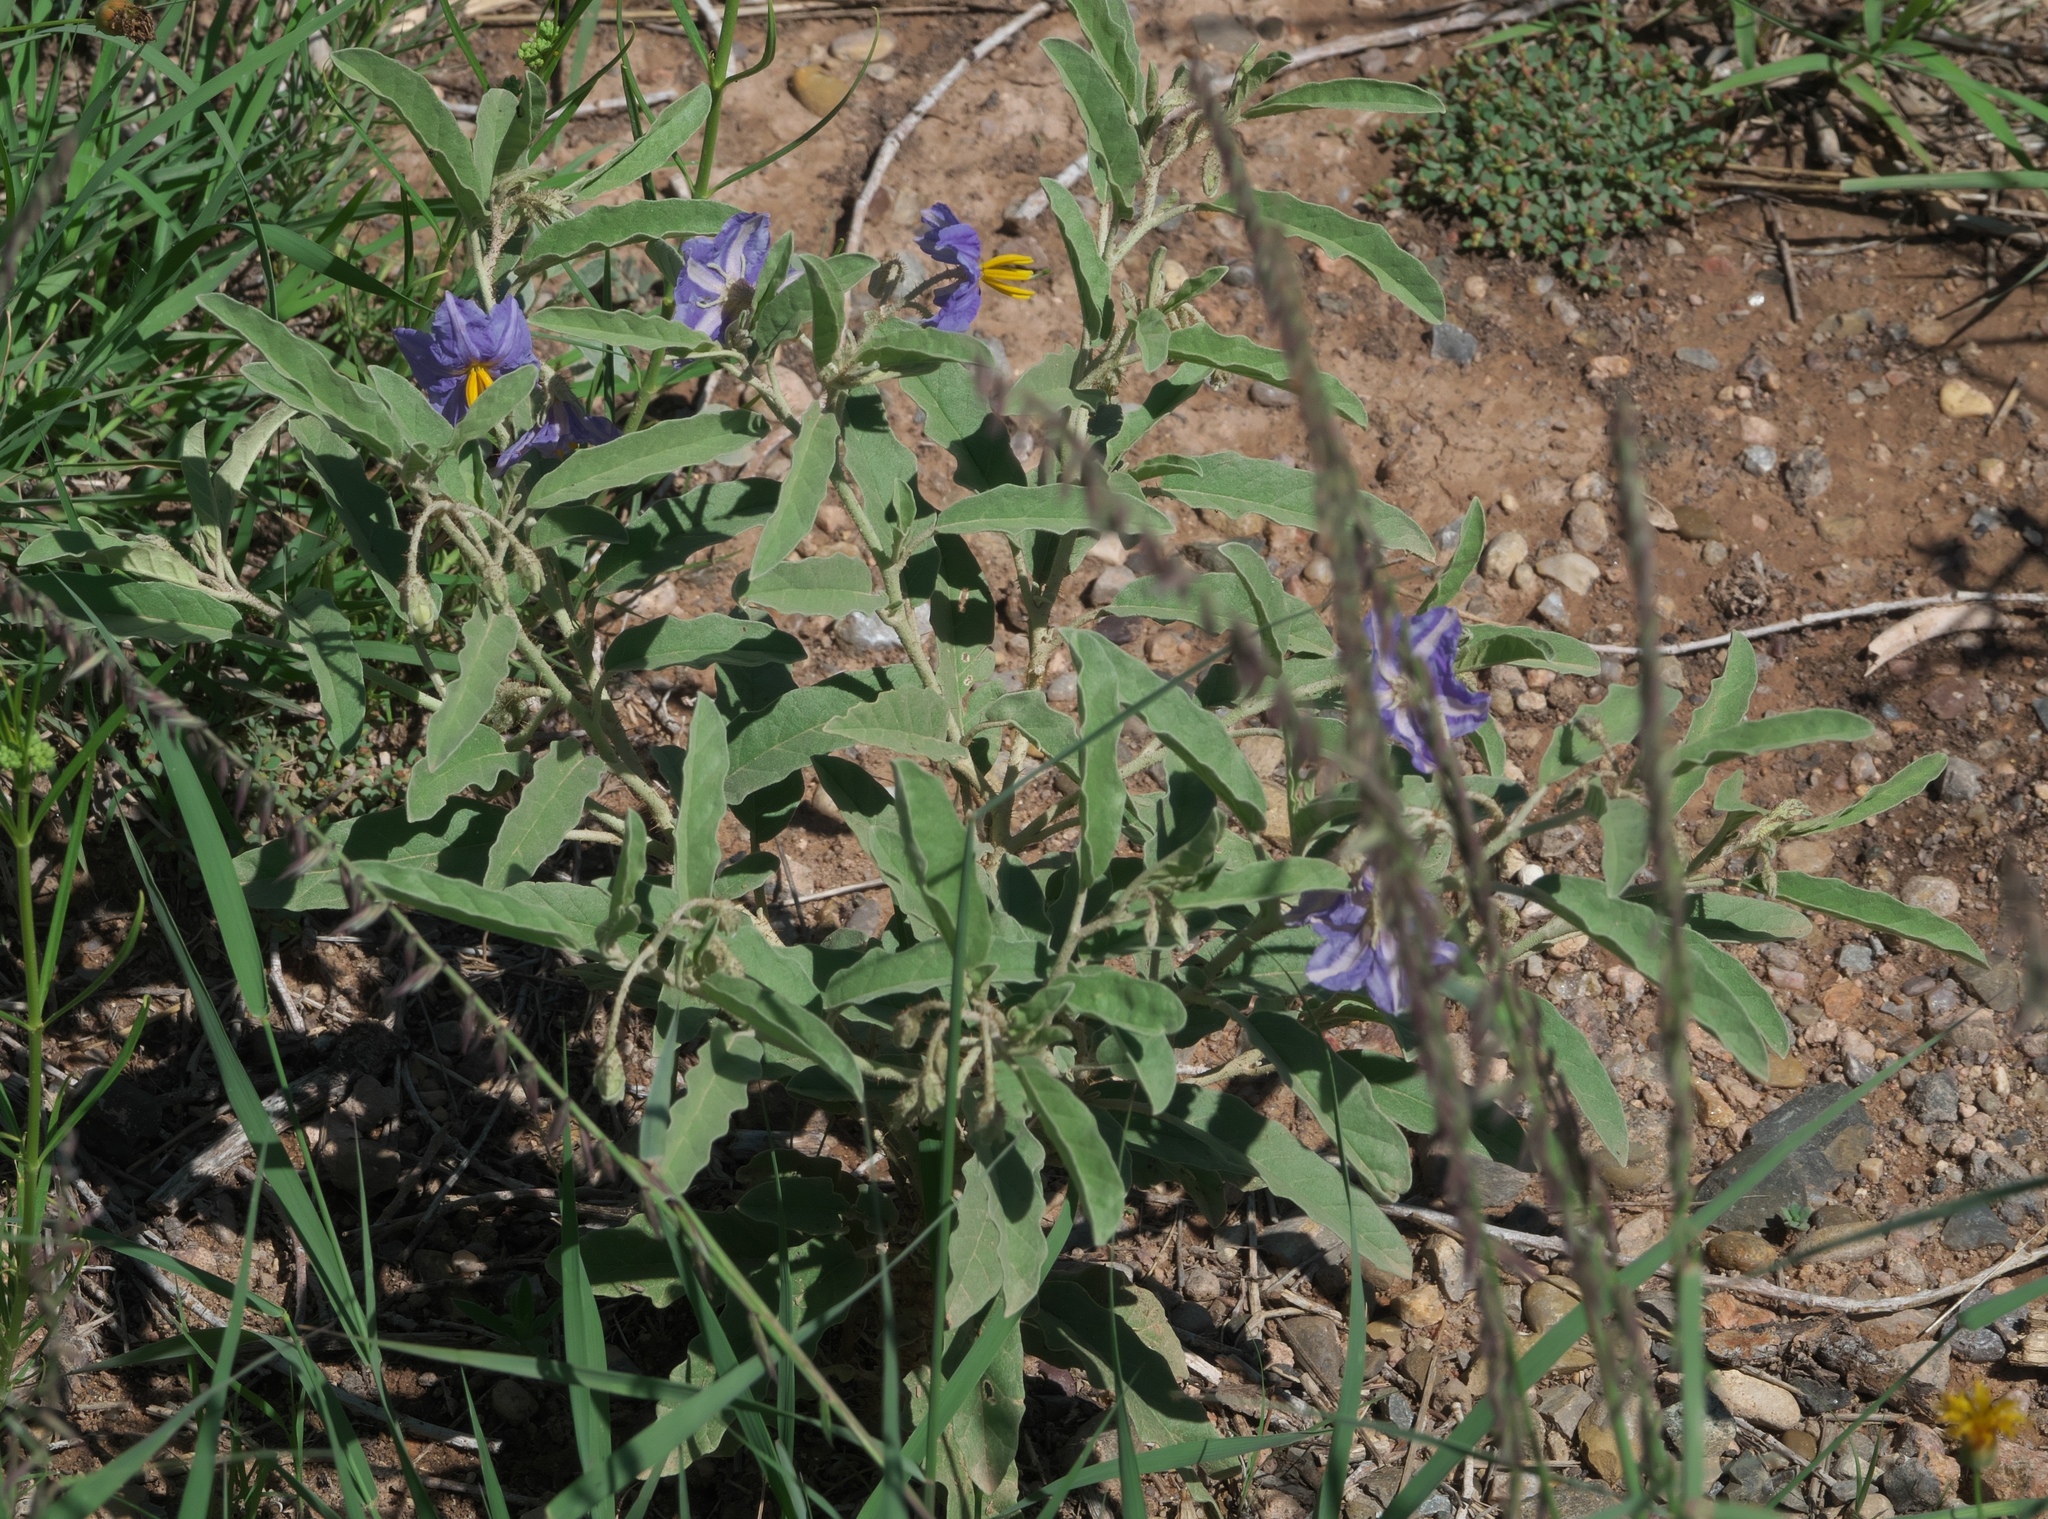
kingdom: Plantae
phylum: Tracheophyta
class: Magnoliopsida
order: Solanales
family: Solanaceae
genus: Solanum
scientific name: Solanum elaeagnifolium
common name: Silverleaf nightshade
